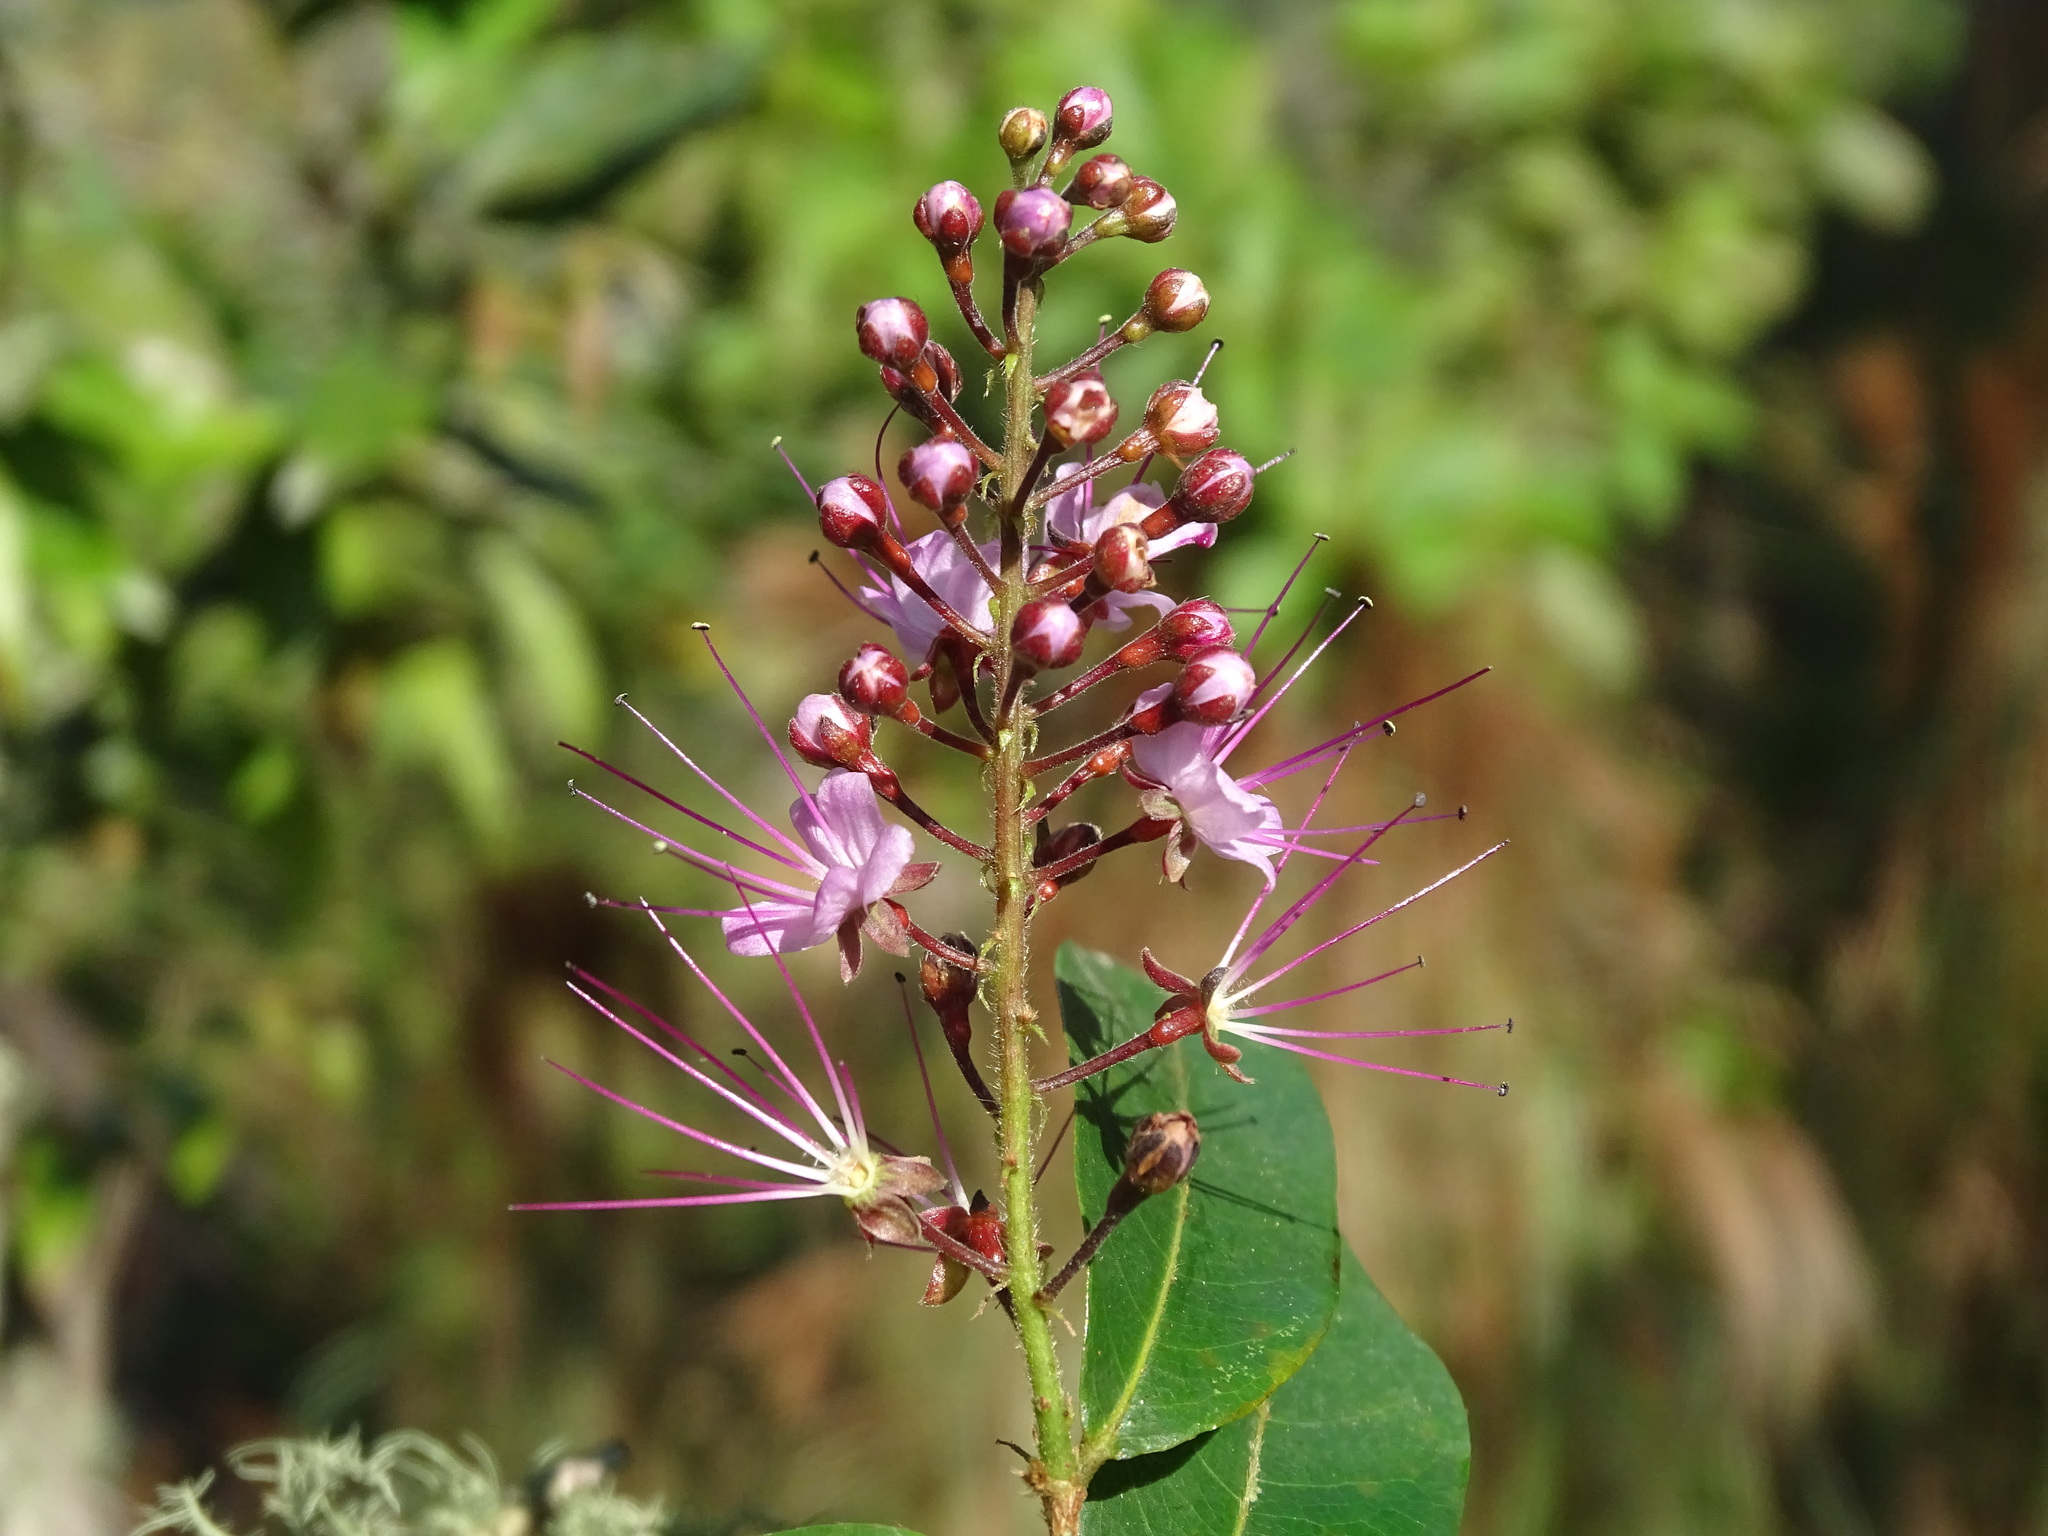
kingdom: Plantae
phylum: Tracheophyta
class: Magnoliopsida
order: Malpighiales
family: Chrysobalanaceae
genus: Hirtella
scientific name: Hirtella racemosa
